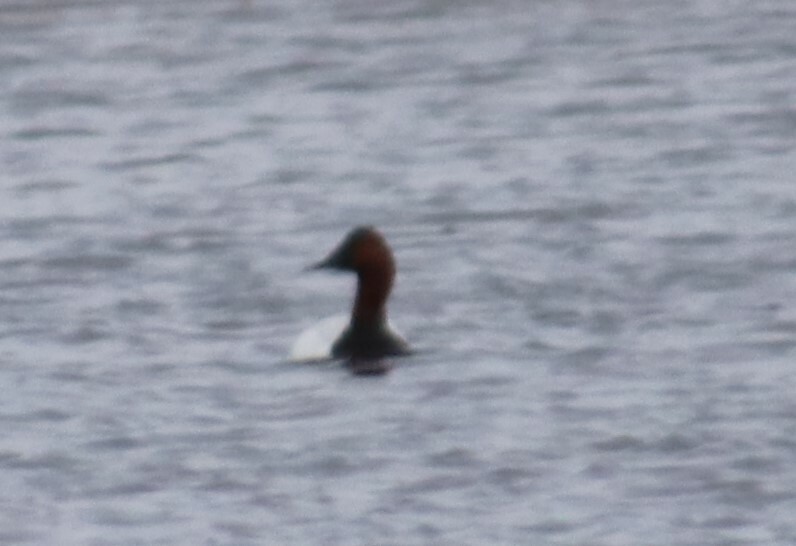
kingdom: Animalia
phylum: Chordata
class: Aves
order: Anseriformes
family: Anatidae
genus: Aythya
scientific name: Aythya valisineria
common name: Canvasback
